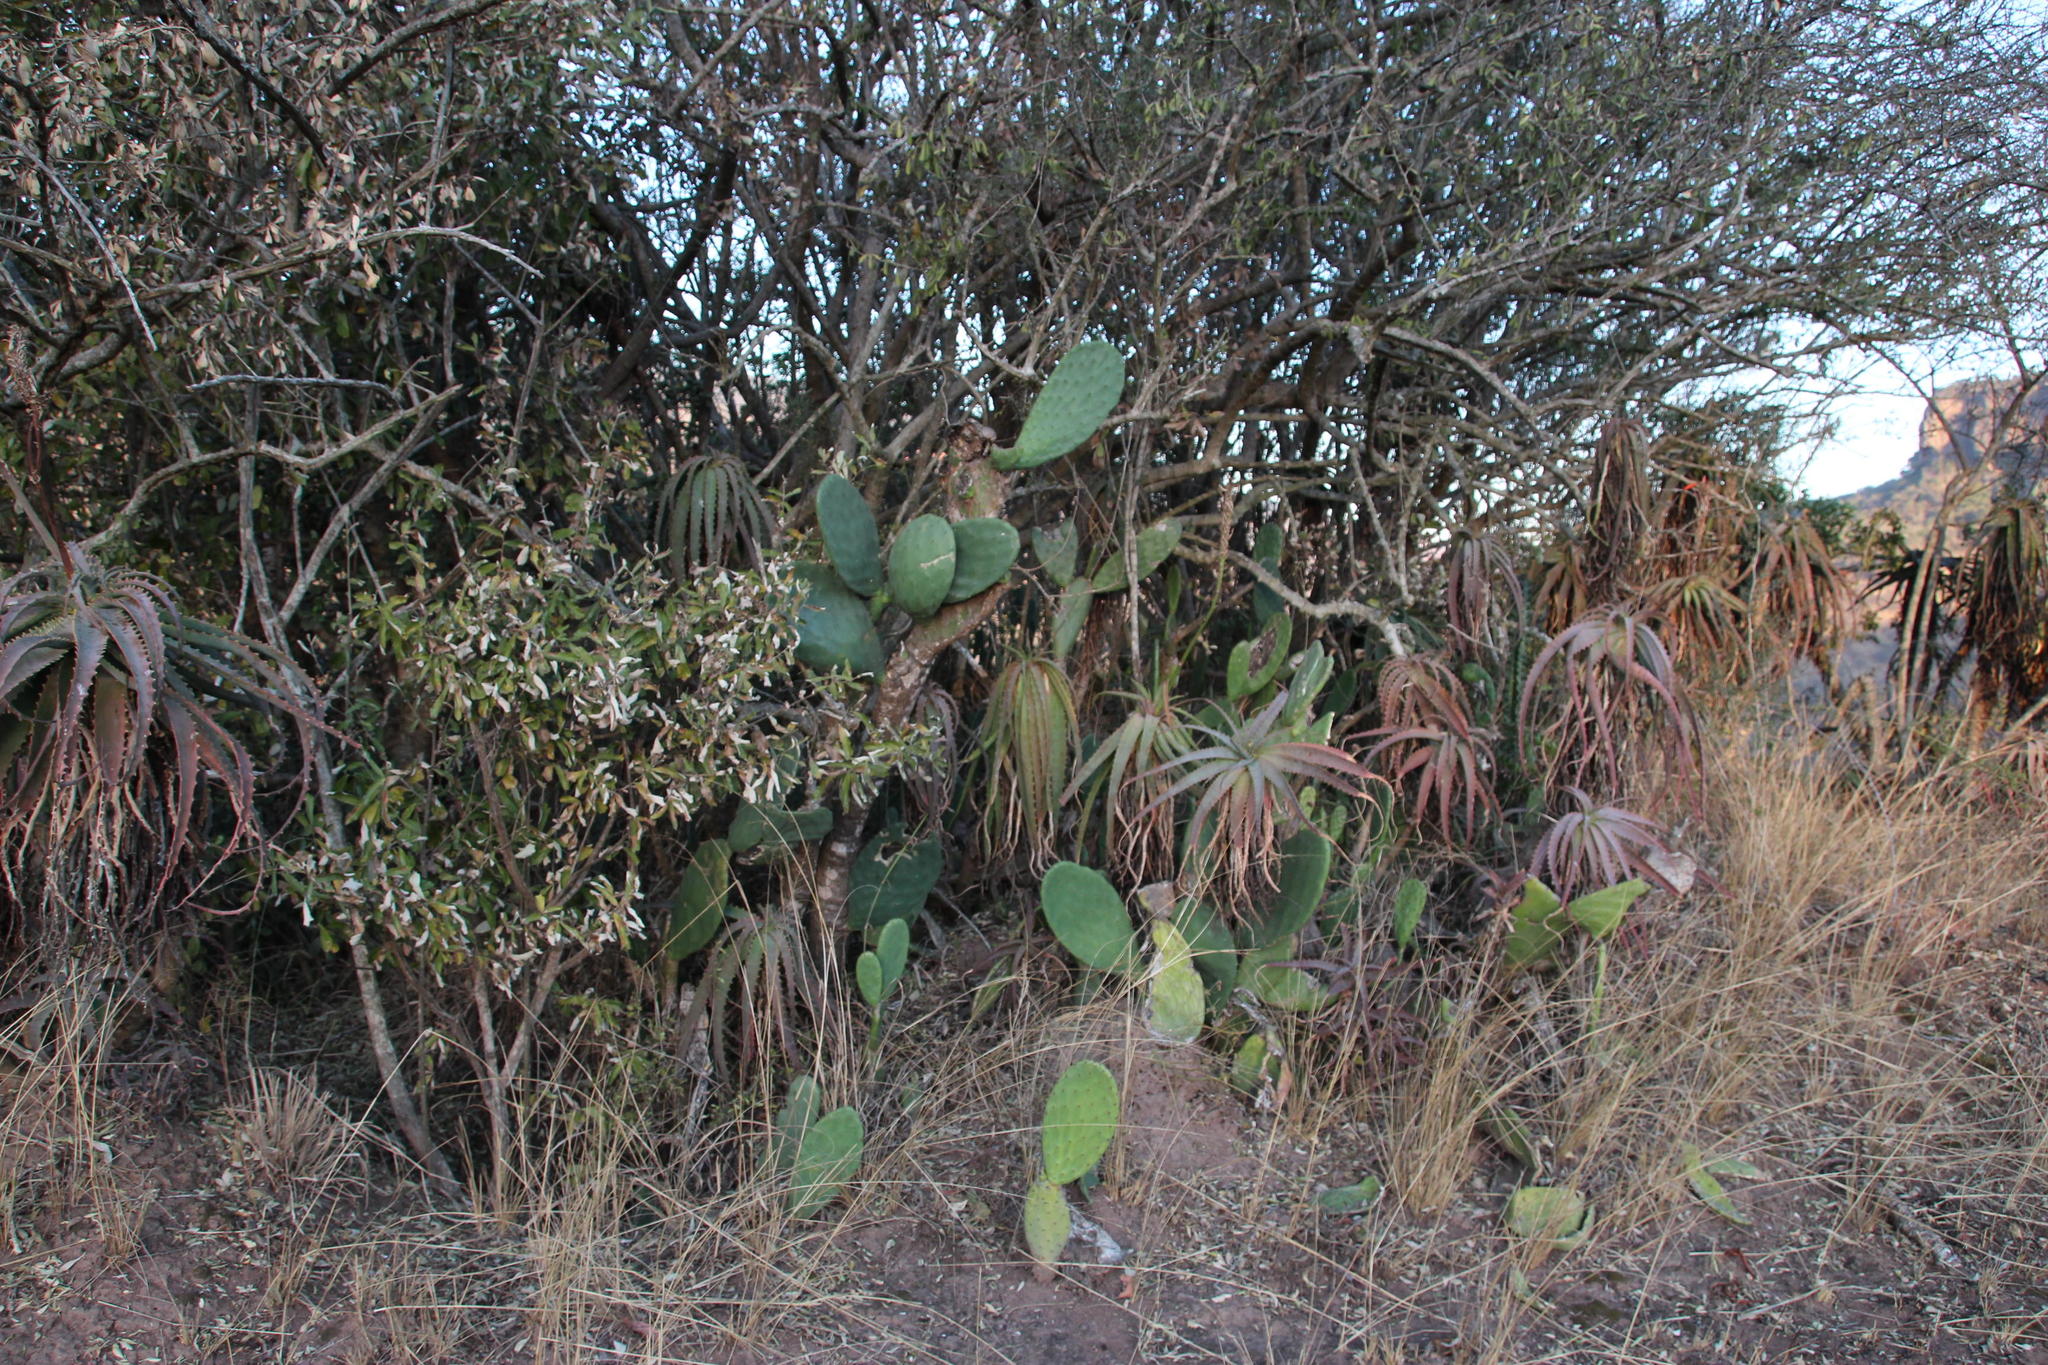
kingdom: Plantae
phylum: Tracheophyta
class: Magnoliopsida
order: Caryophyllales
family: Cactaceae
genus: Opuntia
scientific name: Opuntia ficus-indica
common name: Barbary fig
